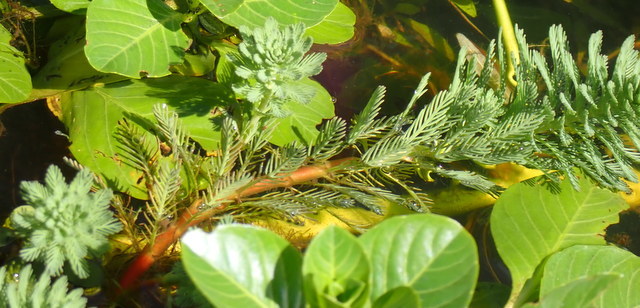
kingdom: Plantae
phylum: Tracheophyta
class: Magnoliopsida
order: Saxifragales
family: Haloragaceae
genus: Myriophyllum
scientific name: Myriophyllum aquaticum
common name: Parrot's feather
